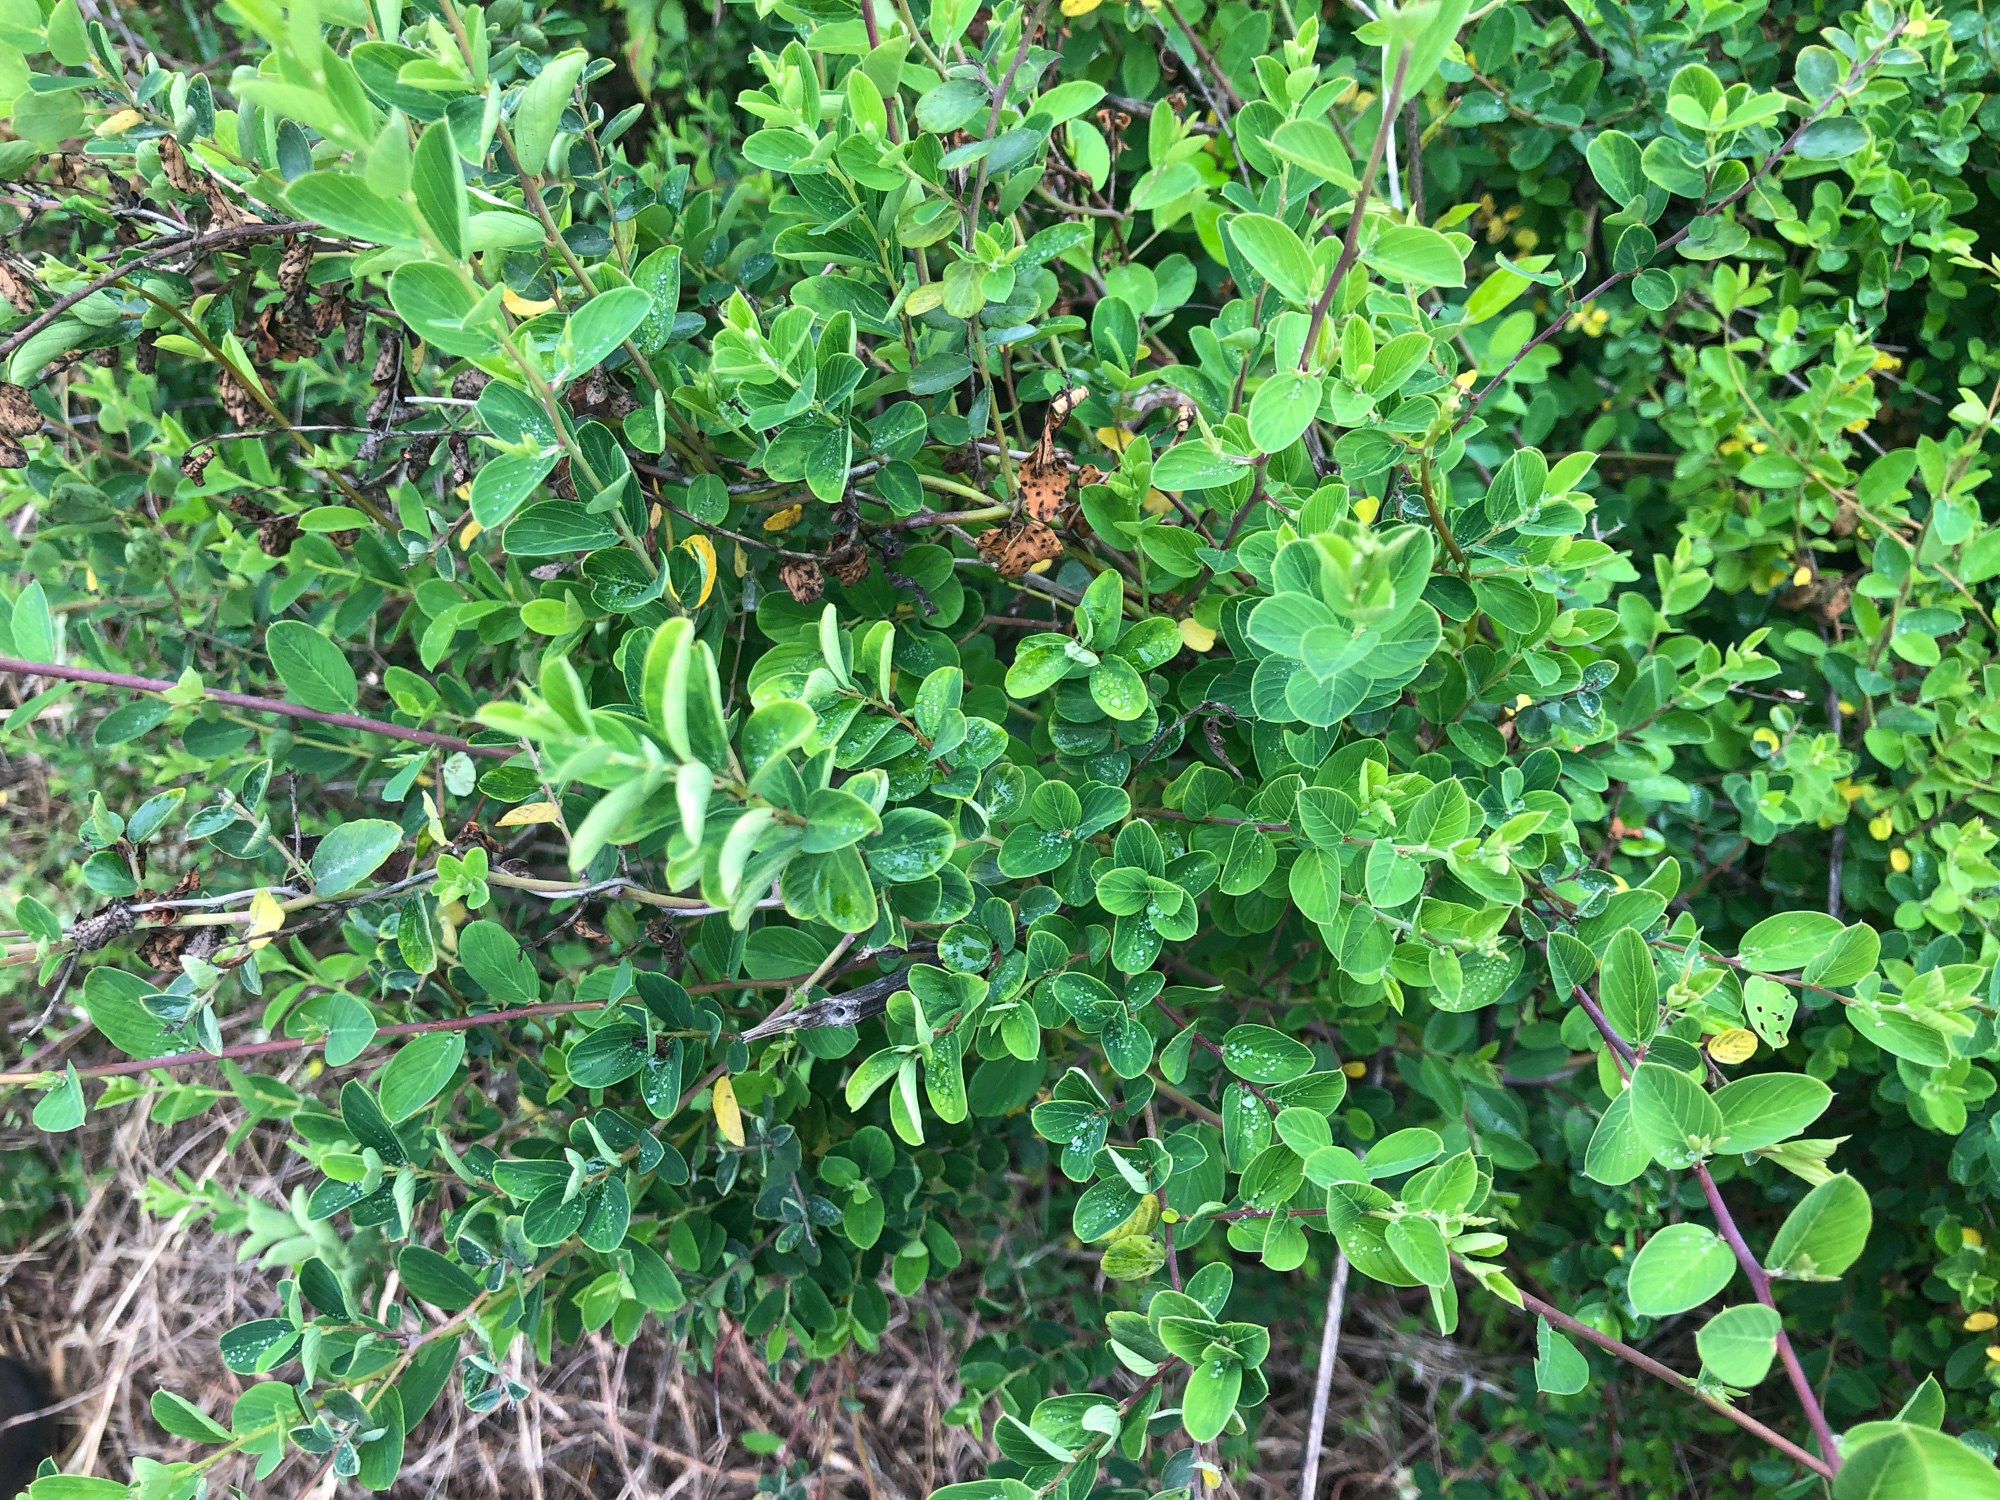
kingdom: Plantae
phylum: Tracheophyta
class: Magnoliopsida
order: Rosales
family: Rhamnaceae
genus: Berchemia
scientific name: Berchemia lineata
